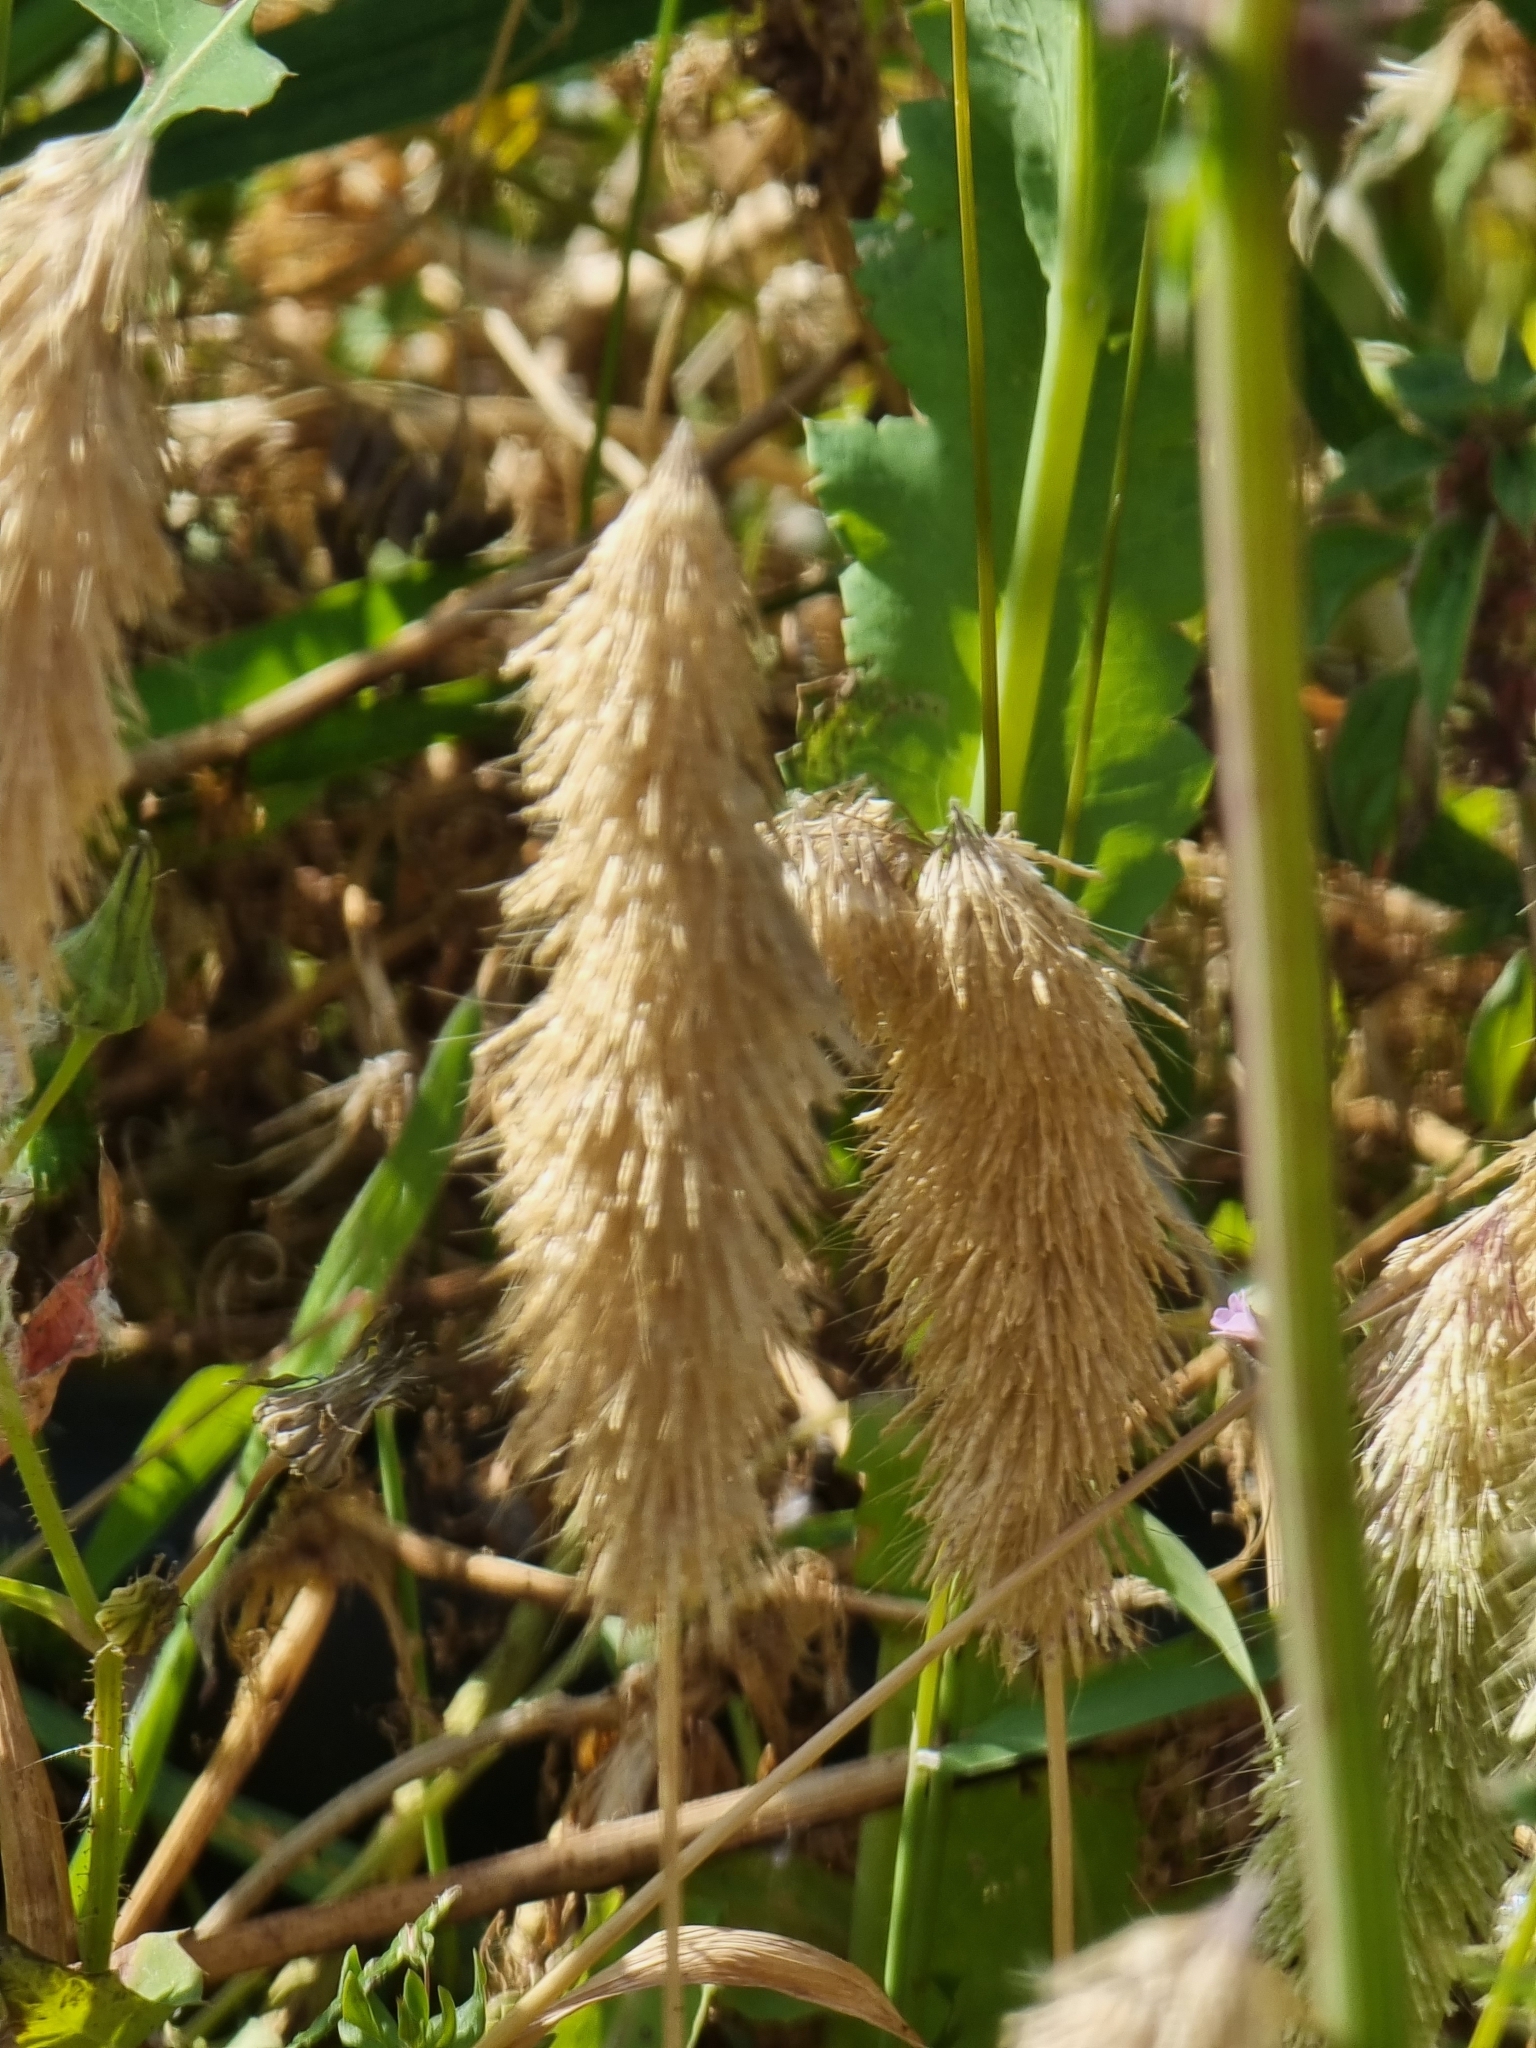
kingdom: Plantae
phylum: Tracheophyta
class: Liliopsida
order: Poales
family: Poaceae
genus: Lamarckia
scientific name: Lamarckia aurea
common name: Golden dog's-tail
